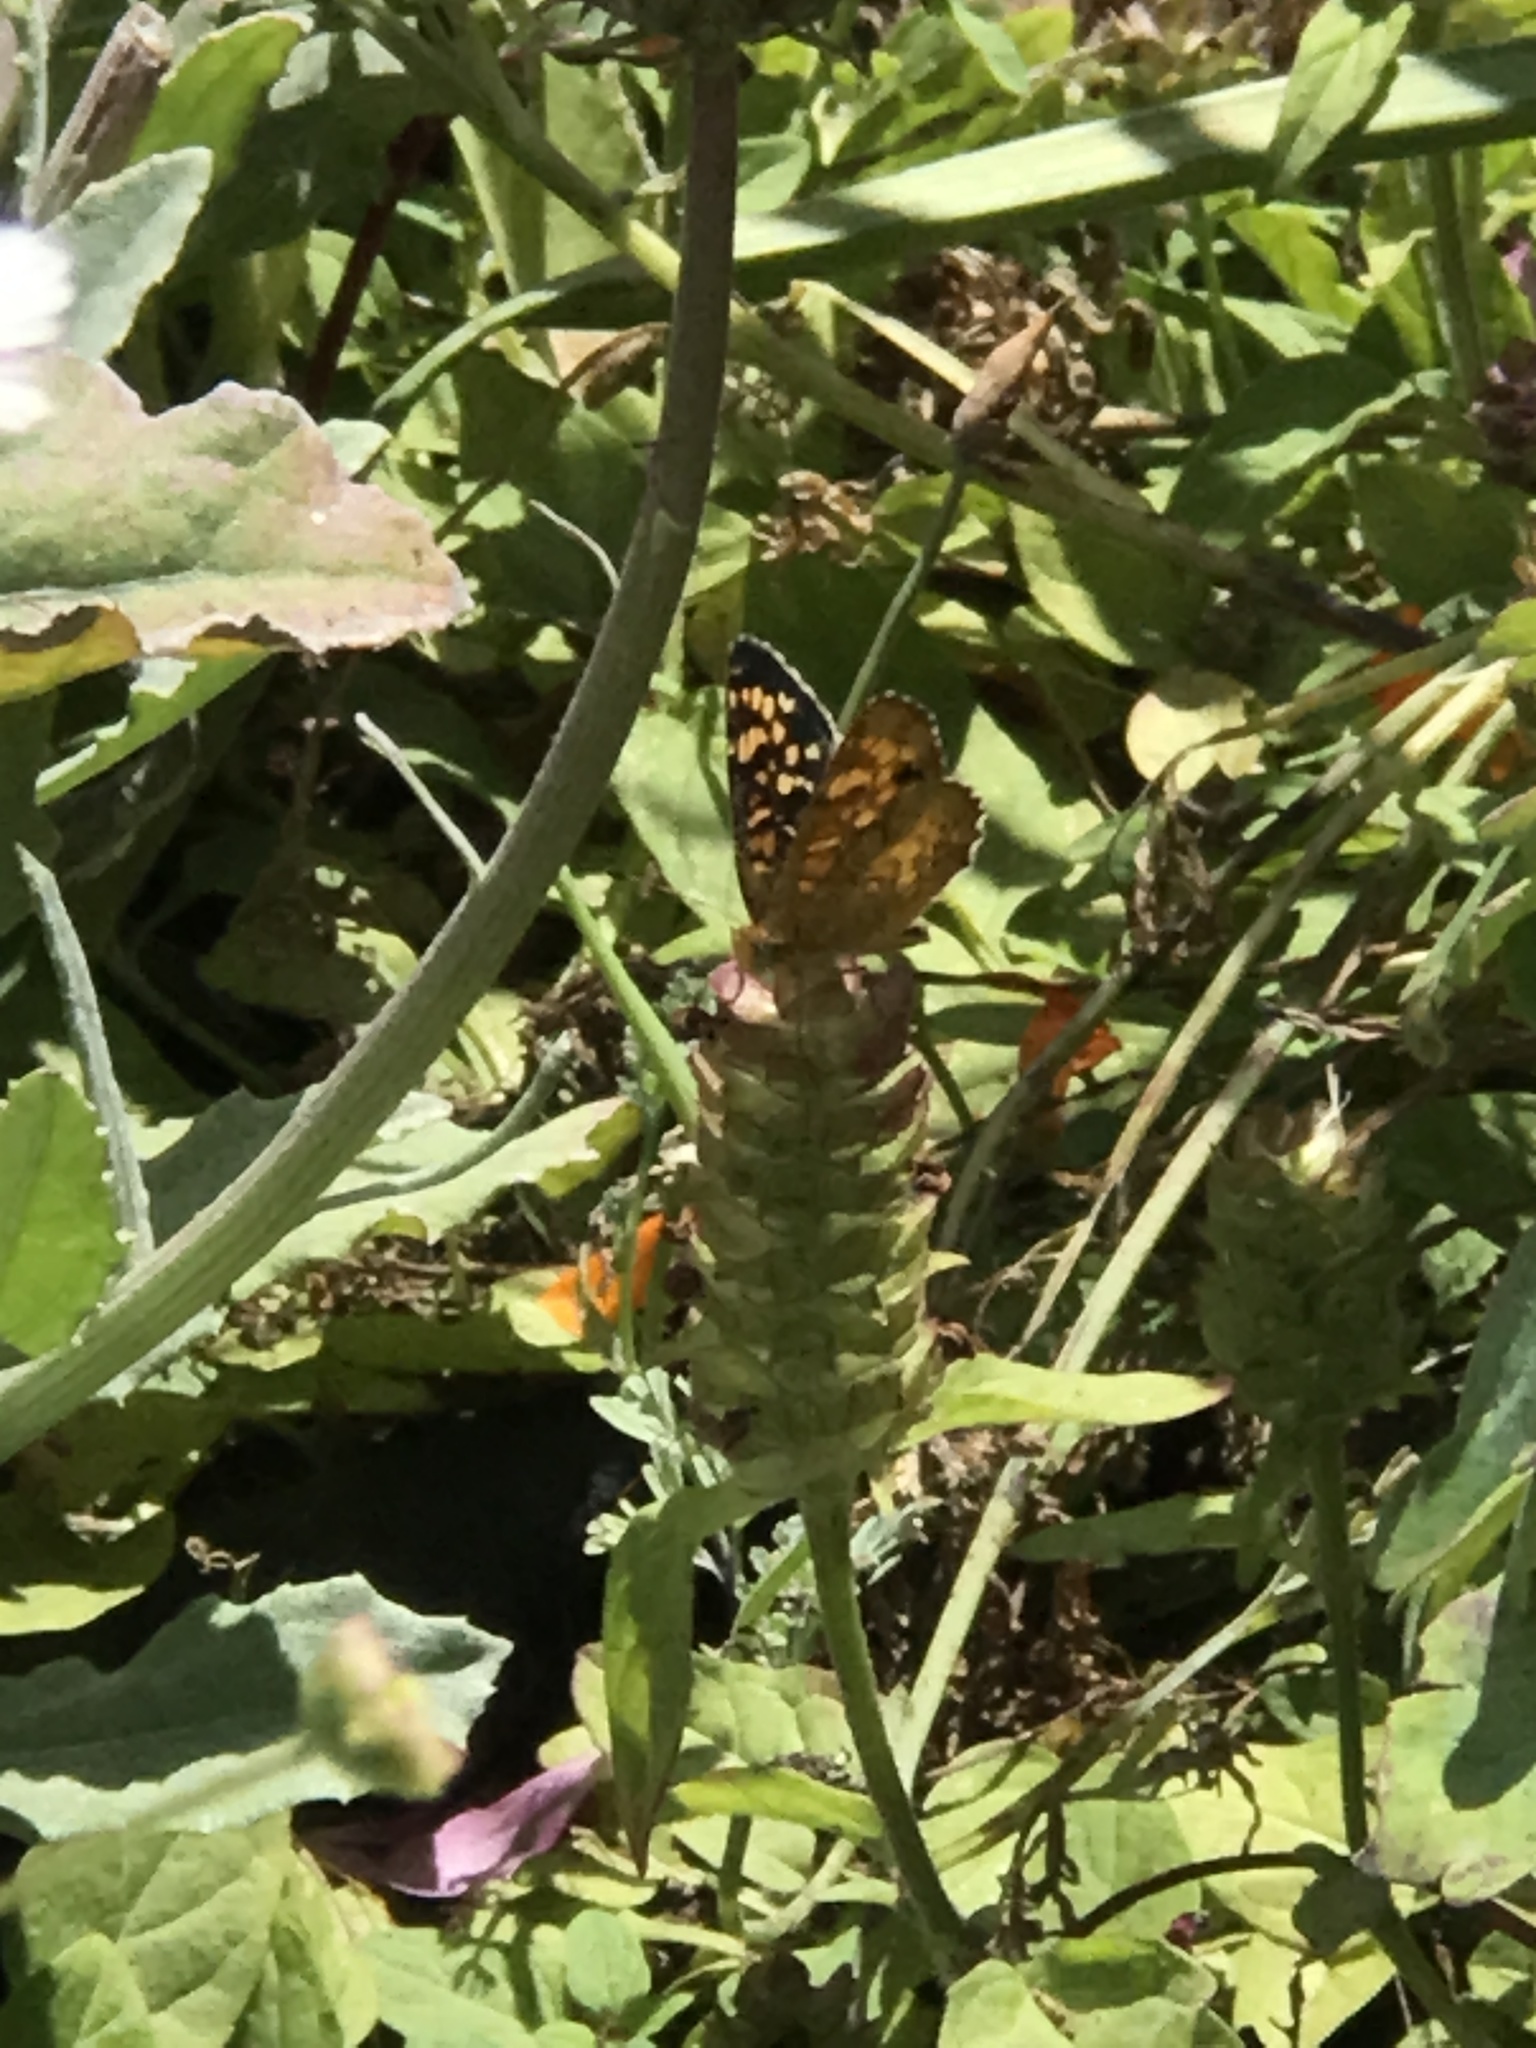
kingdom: Animalia
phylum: Arthropoda
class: Insecta
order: Lepidoptera
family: Nymphalidae
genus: Phyciodes
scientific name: Phyciodes tharos
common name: Pearl crescent
